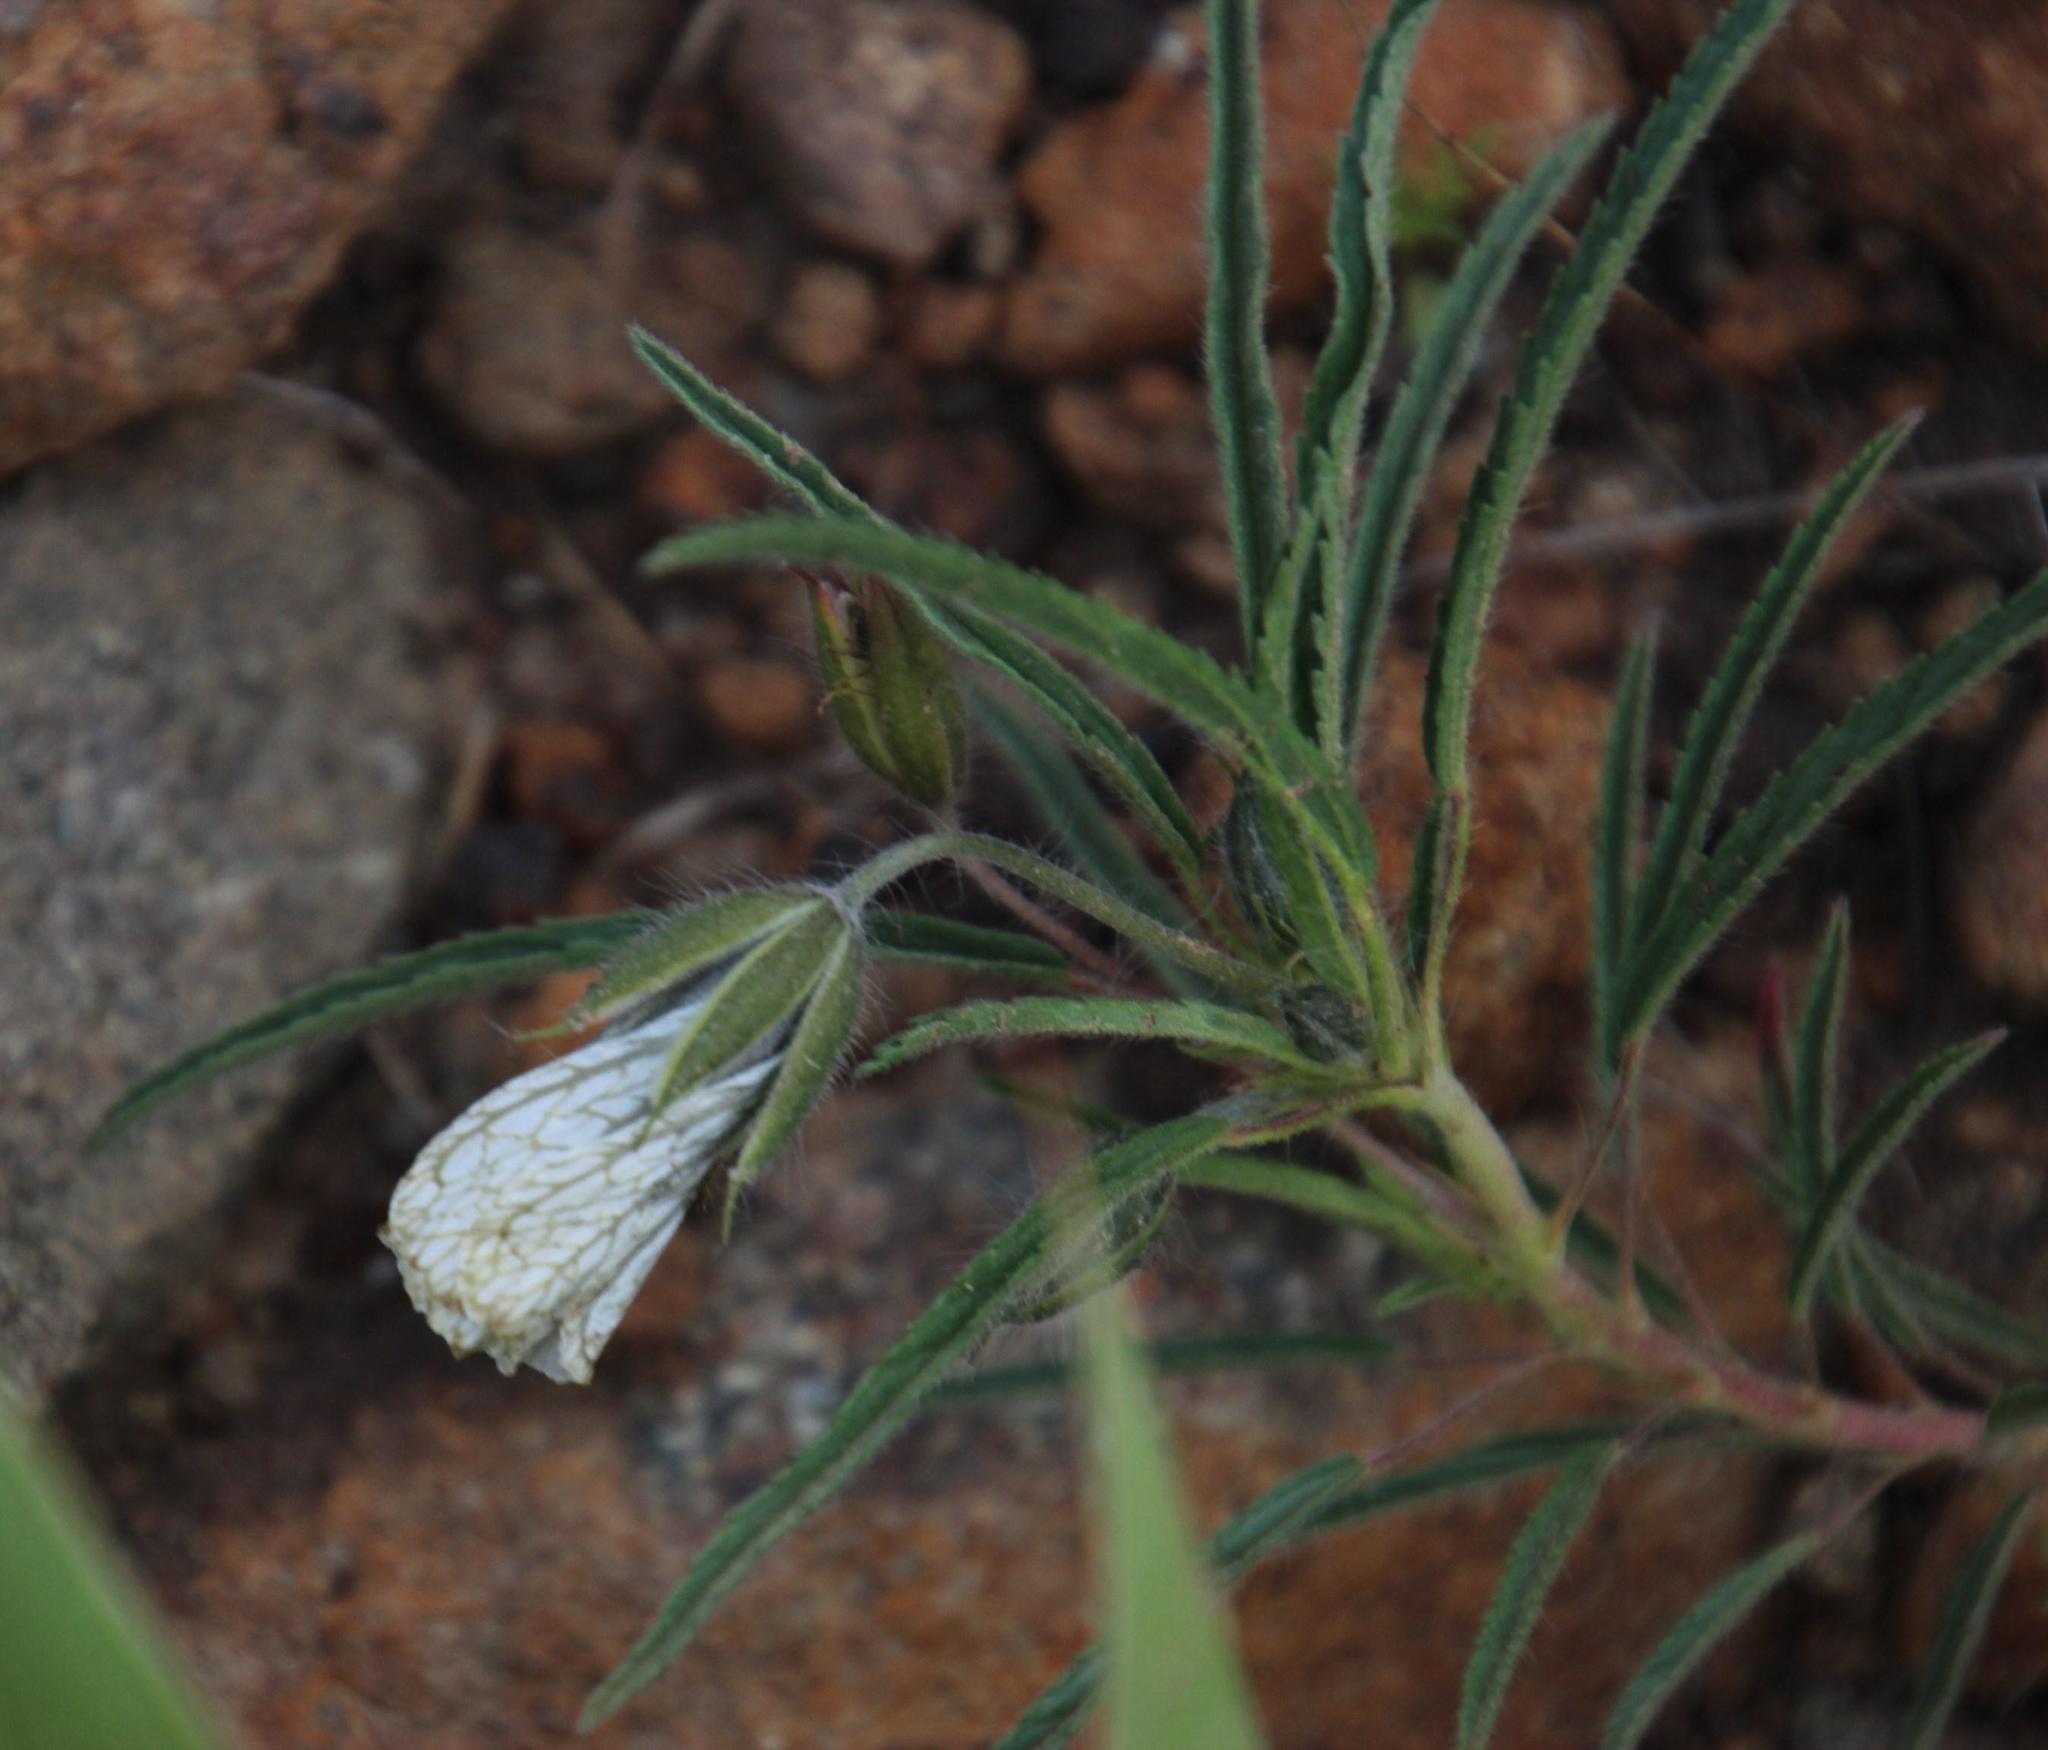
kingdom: Plantae
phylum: Tracheophyta
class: Magnoliopsida
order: Geraniales
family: Geraniaceae
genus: Monsonia
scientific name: Monsonia angustifolia
